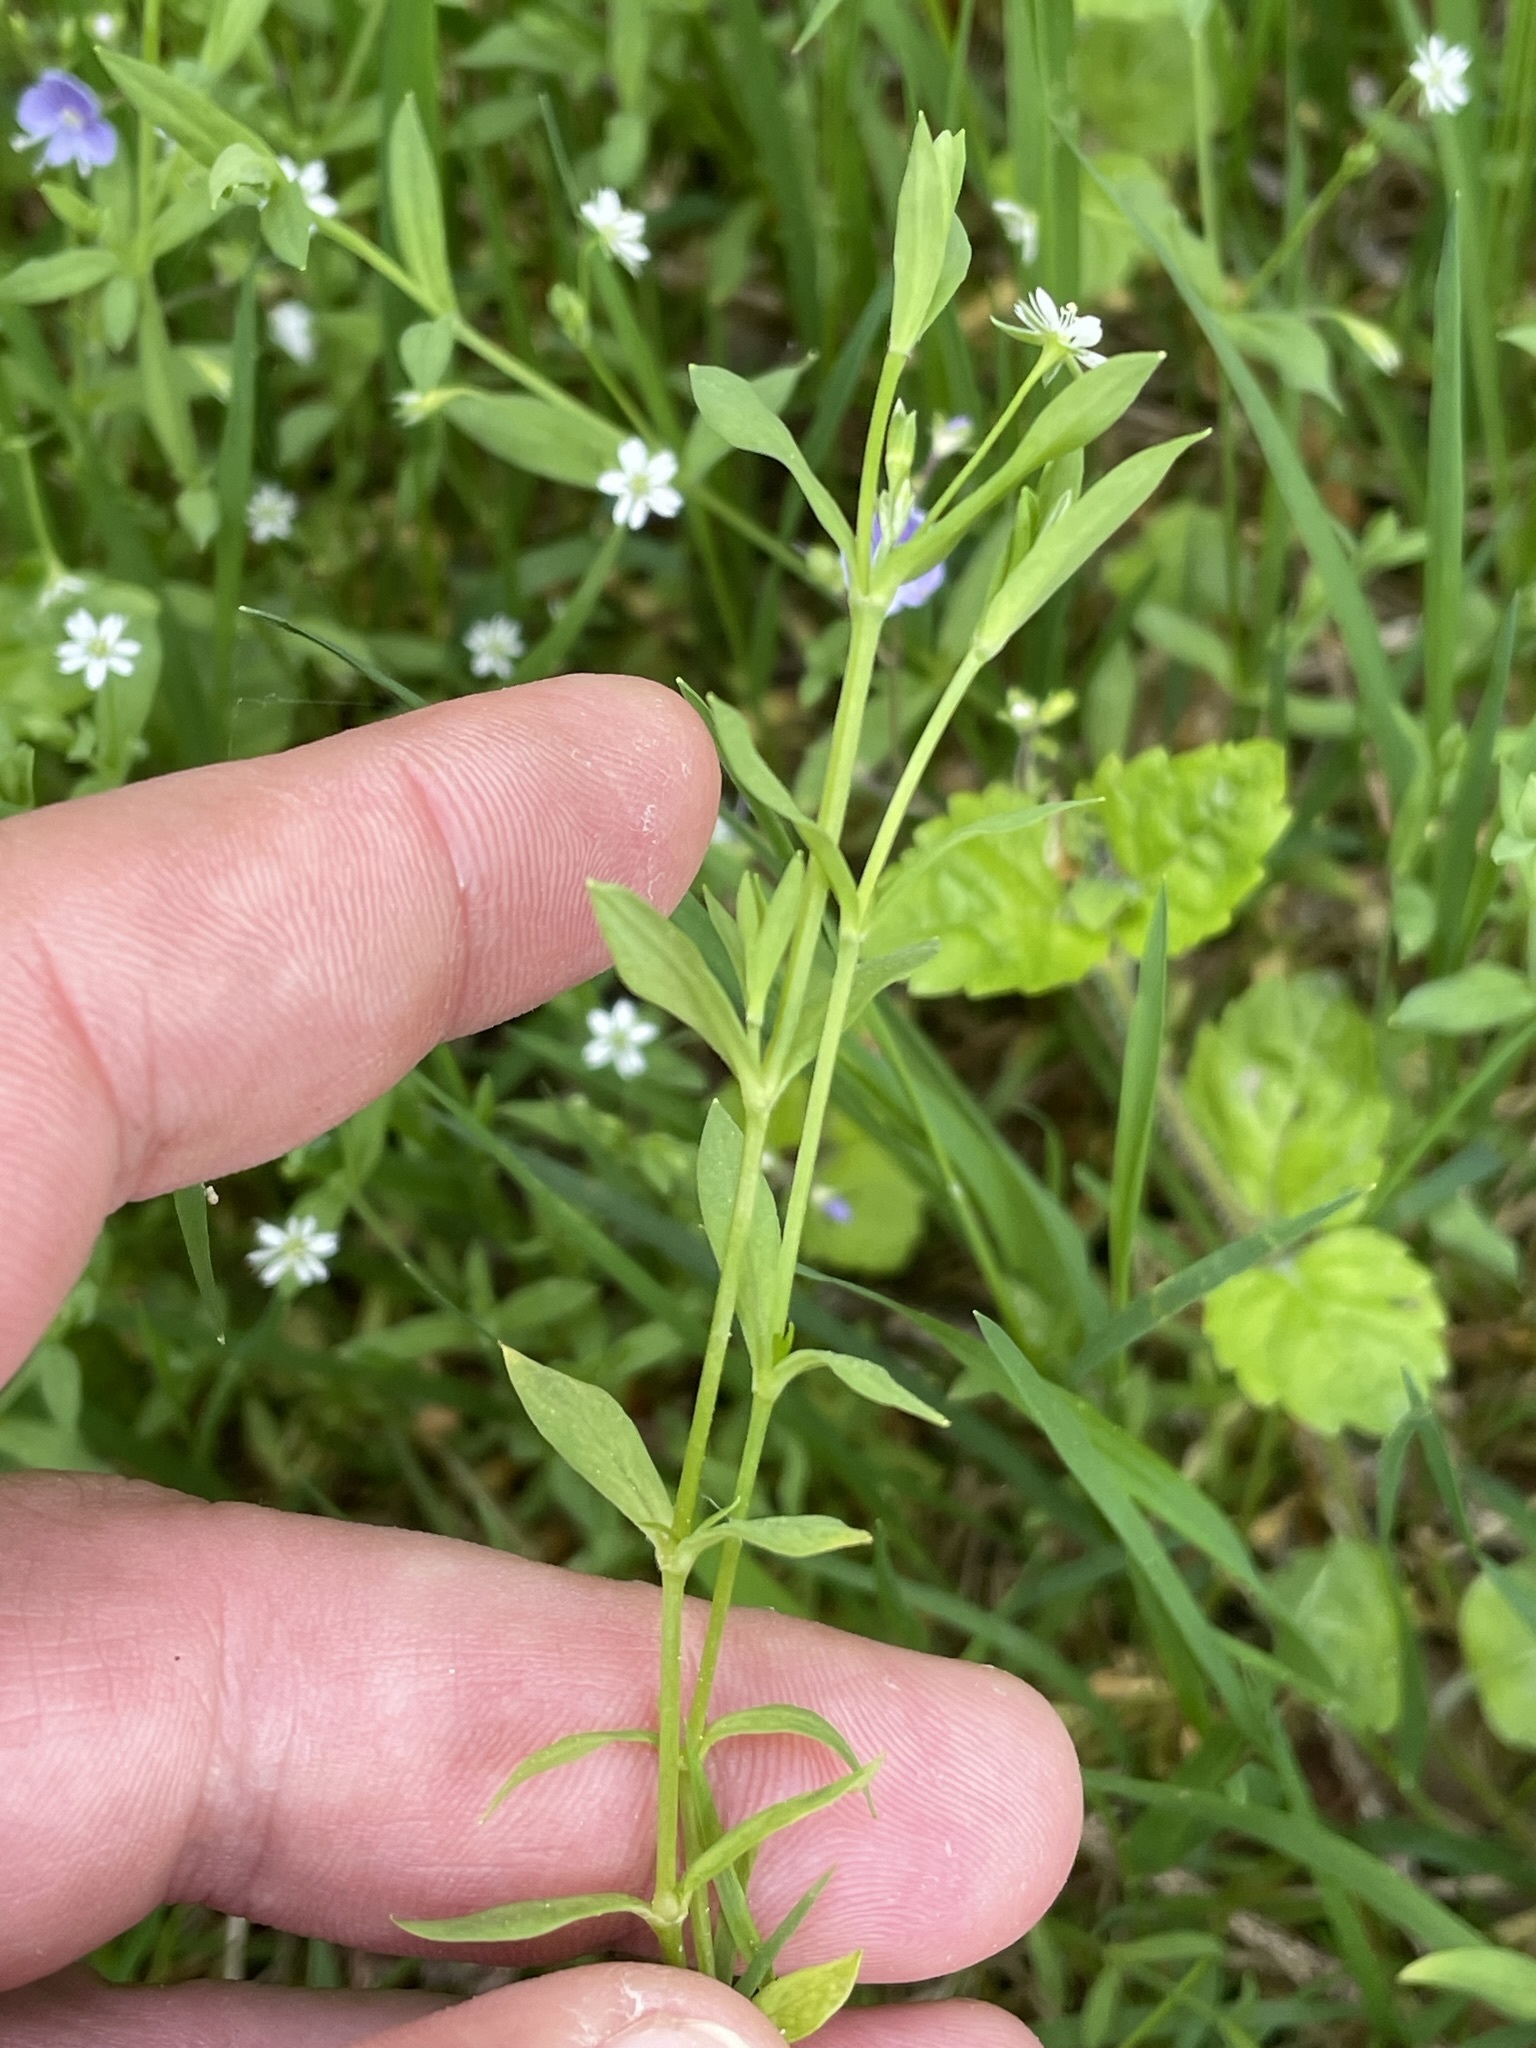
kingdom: Plantae
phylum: Tracheophyta
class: Magnoliopsida
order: Caryophyllales
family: Caryophyllaceae
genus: Stellaria
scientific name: Stellaria alsine
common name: Bog stitchwort
